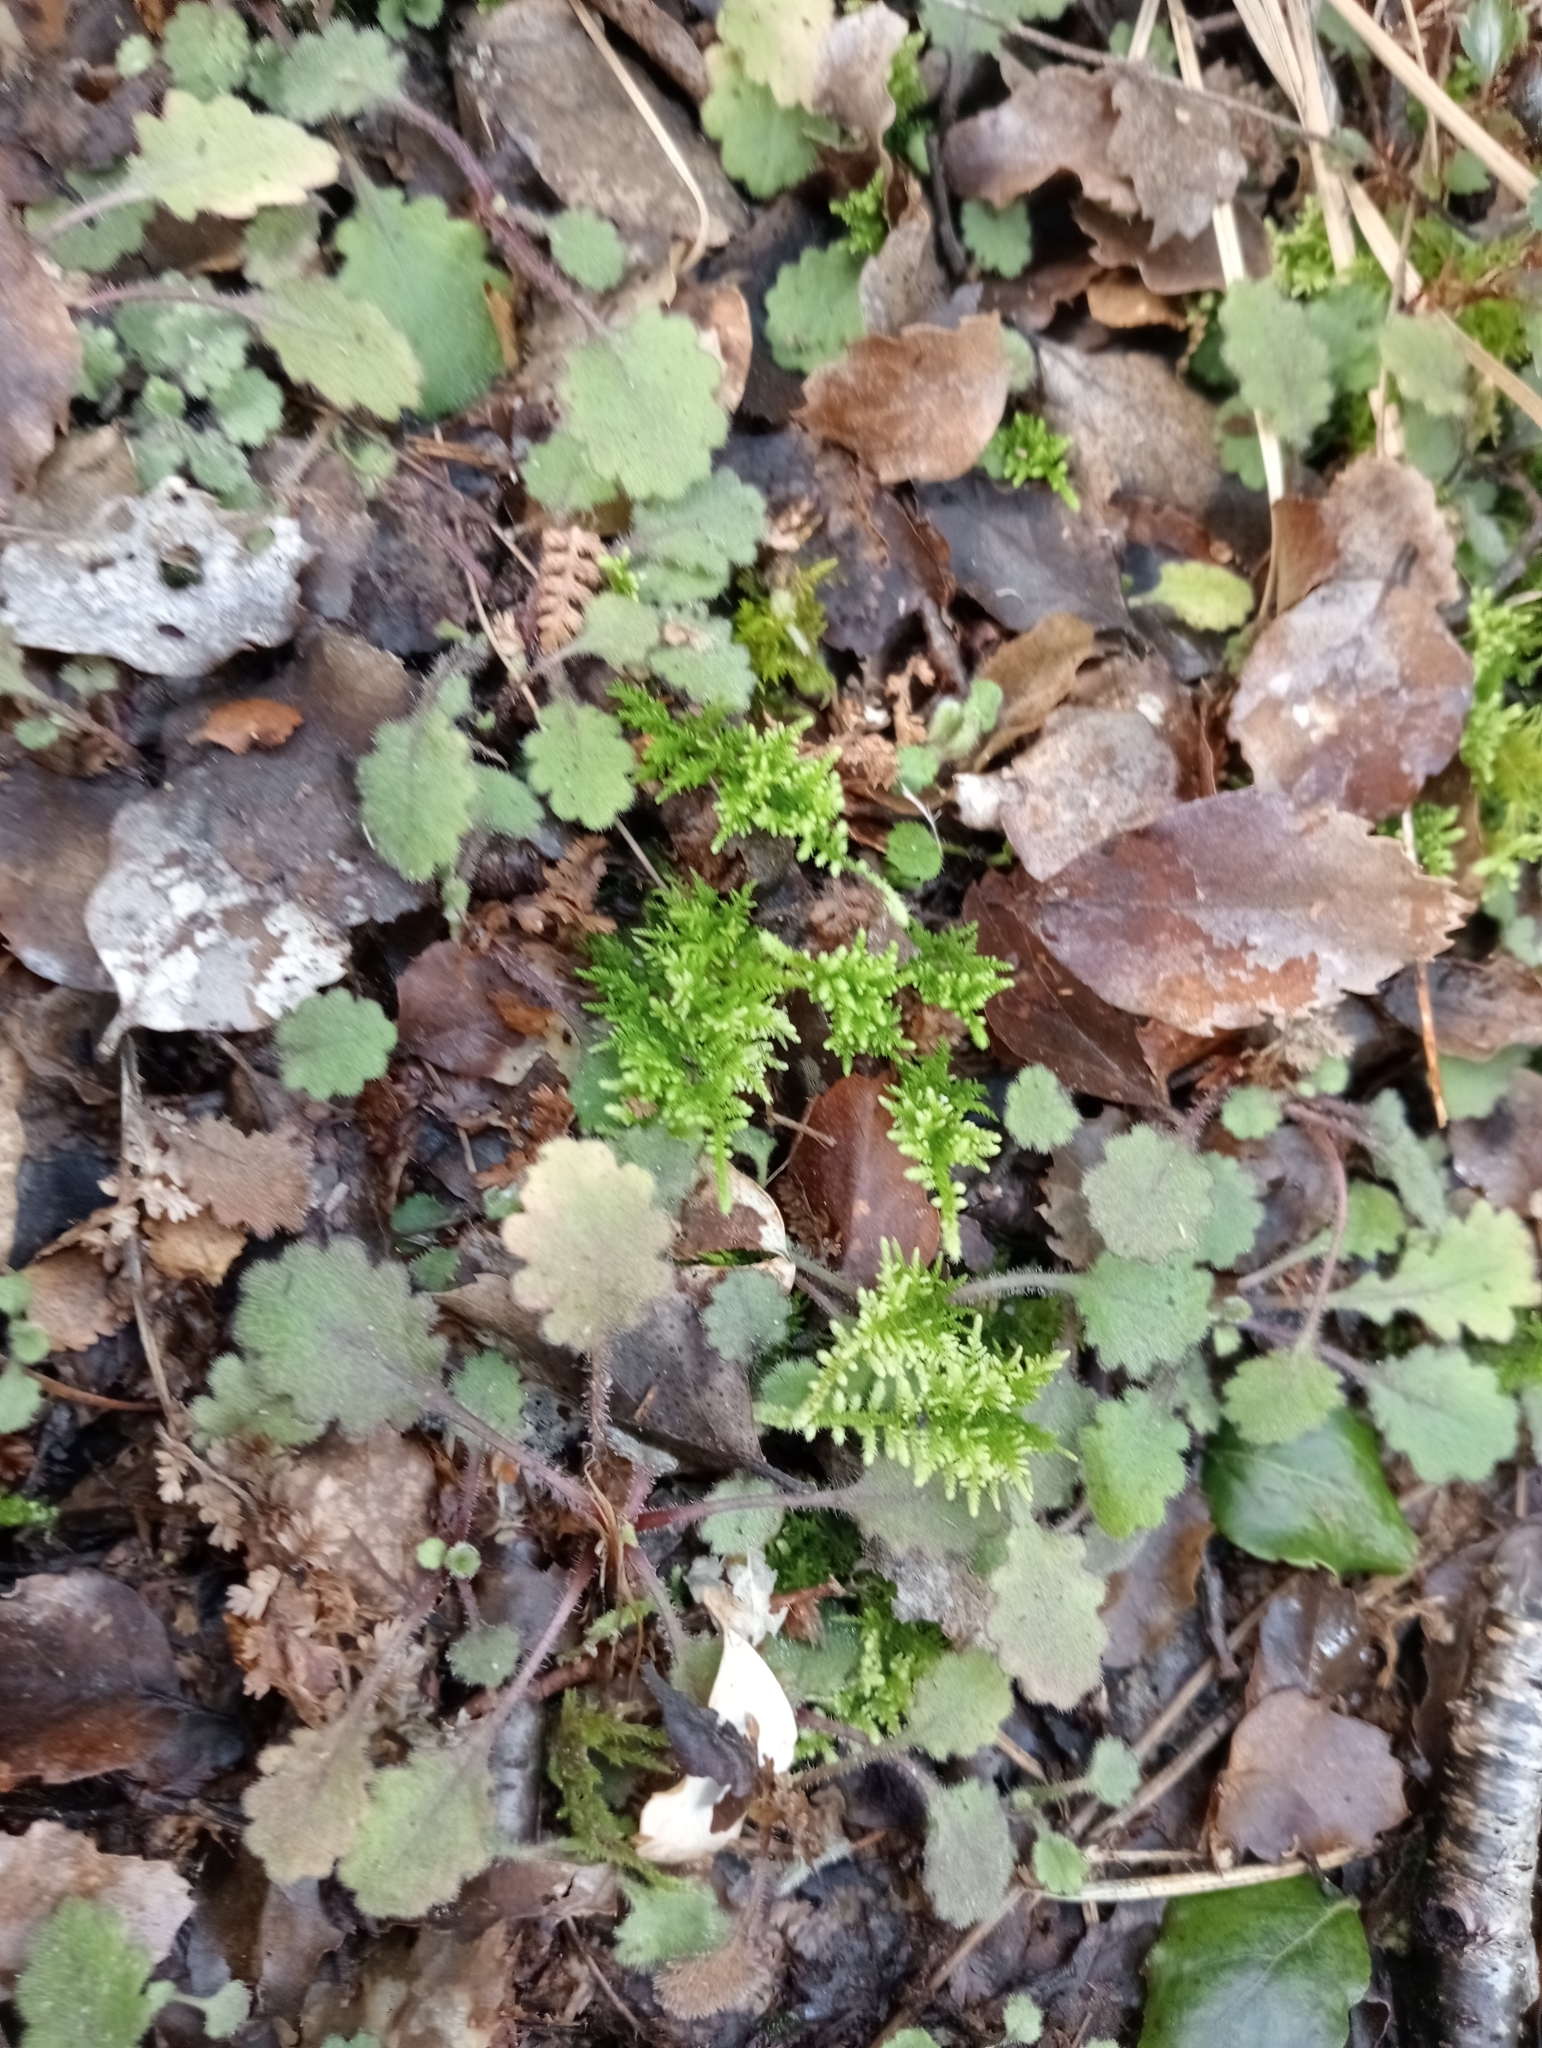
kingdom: Plantae
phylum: Tracheophyta
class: Magnoliopsida
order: Asterales
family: Asteraceae
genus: Lagenophora
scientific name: Lagenophora pinnatifida
